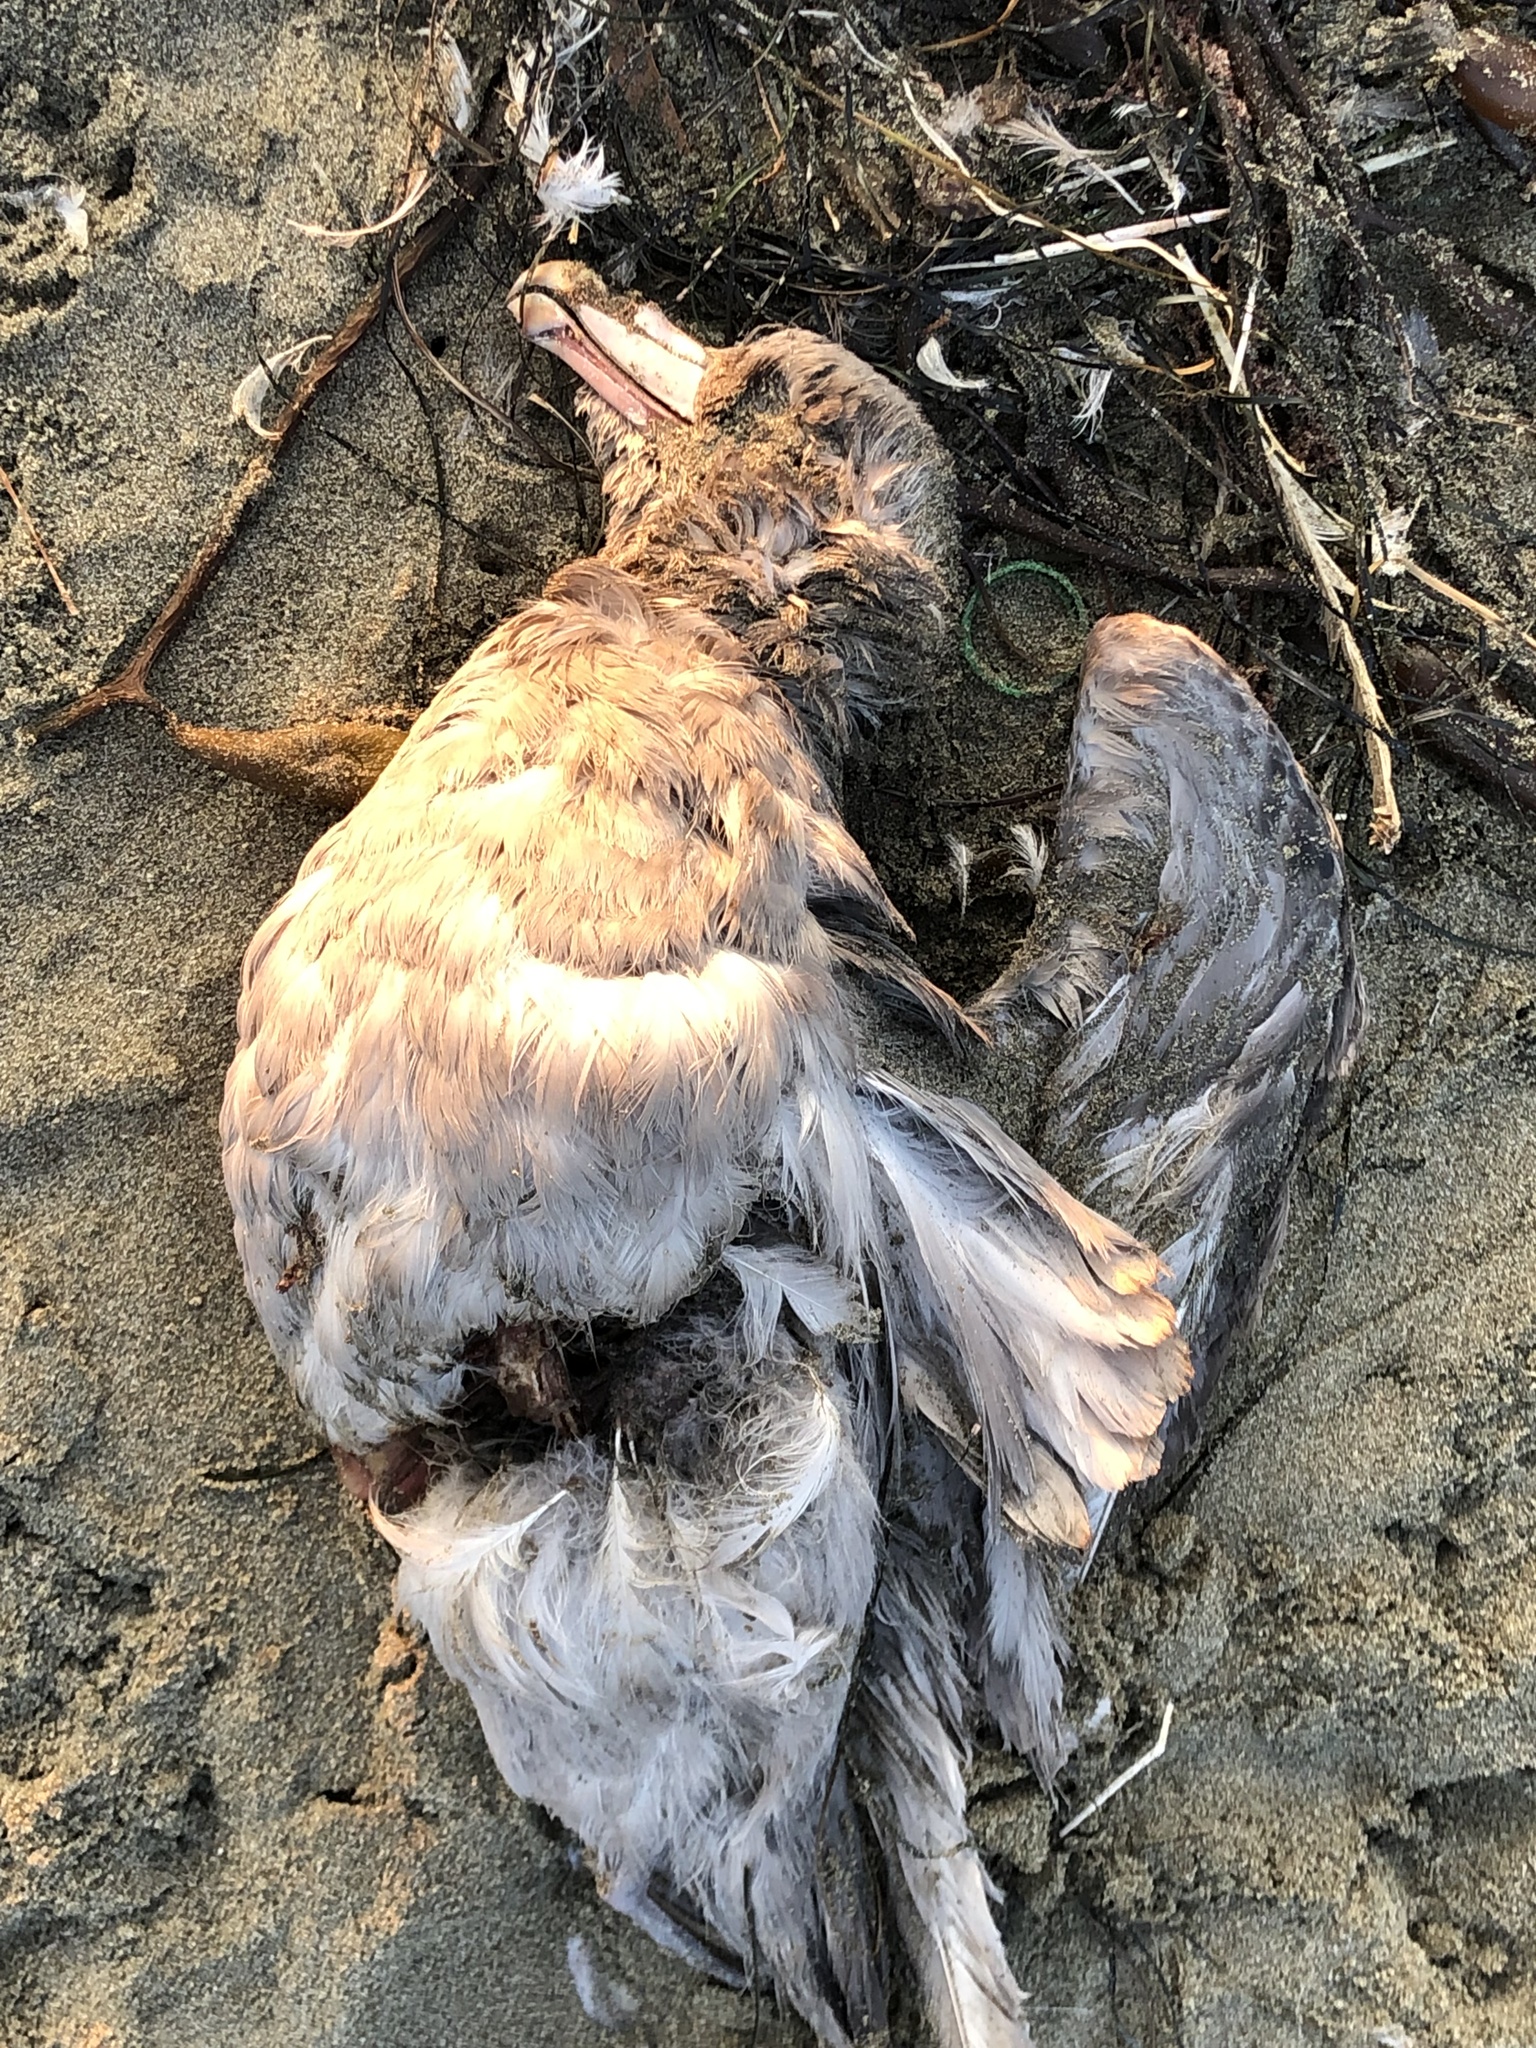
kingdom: Animalia
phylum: Chordata
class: Aves
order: Procellariiformes
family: Procellariidae
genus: Fulmarus
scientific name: Fulmarus glacialis
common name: Northern fulmar
